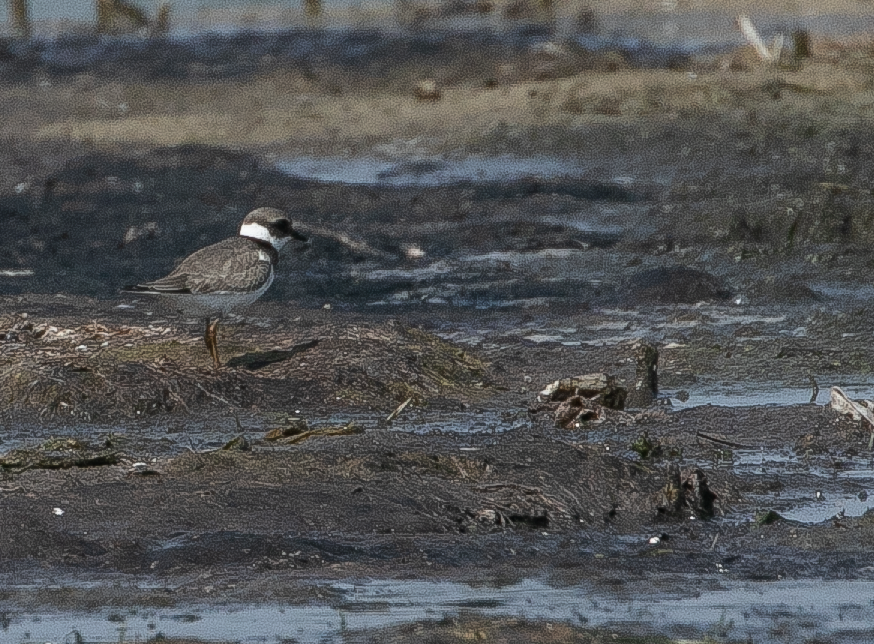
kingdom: Animalia
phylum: Chordata
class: Aves
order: Charadriiformes
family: Charadriidae
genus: Charadrius
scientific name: Charadrius hiaticula
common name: Common ringed plover
